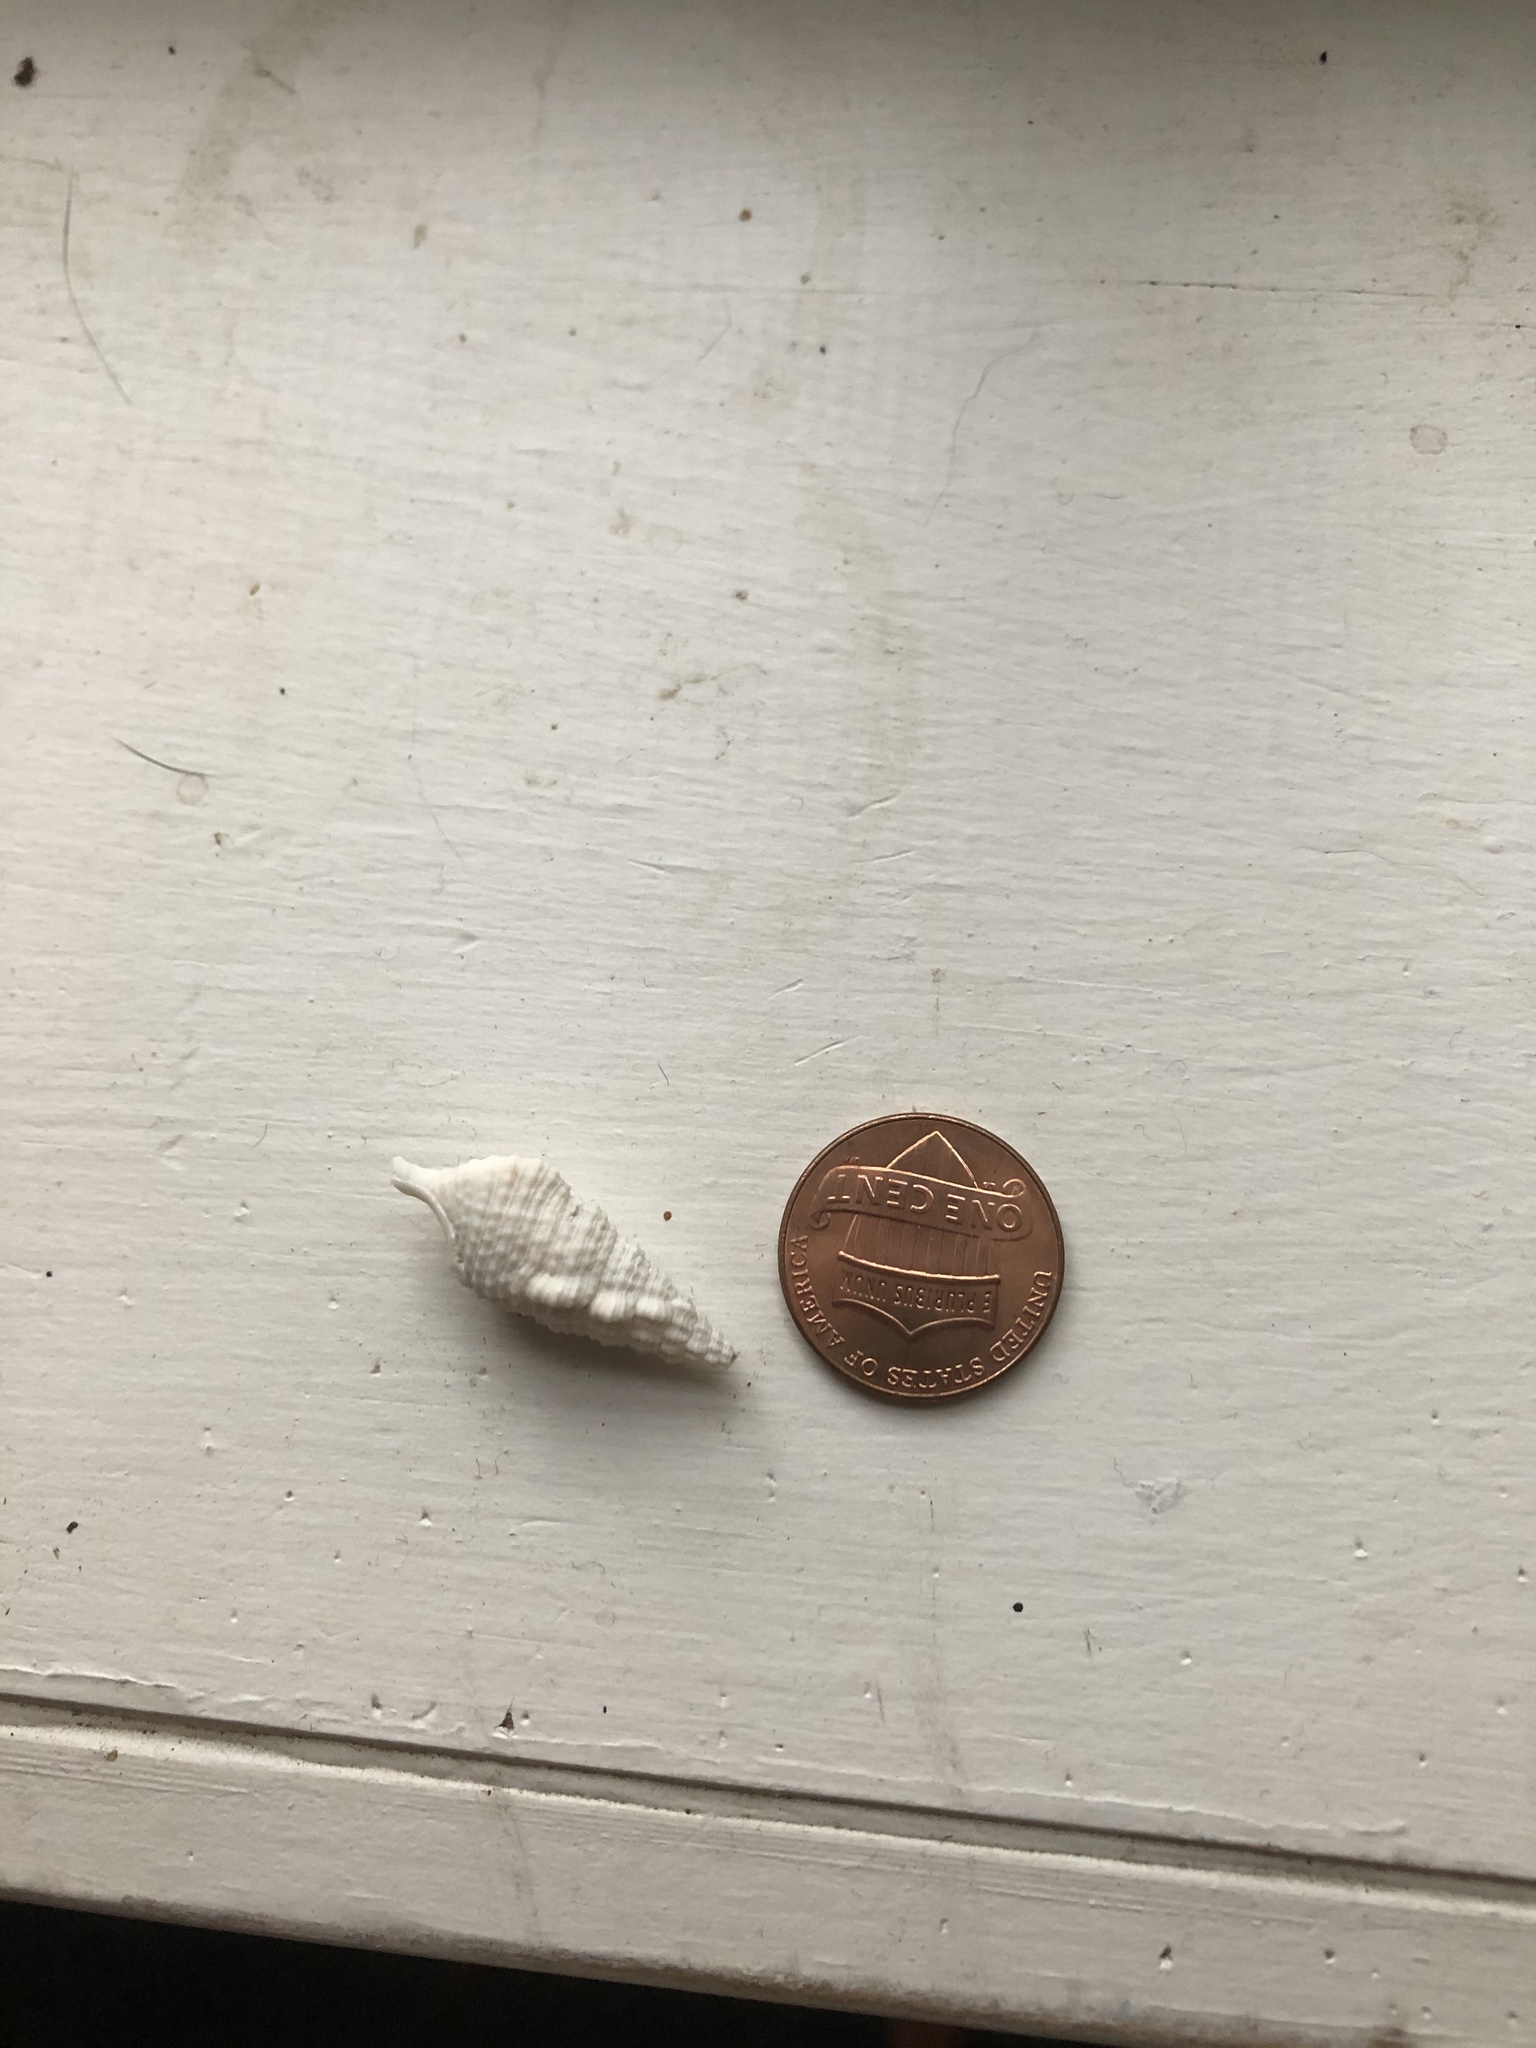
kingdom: Animalia
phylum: Mollusca
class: Gastropoda
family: Cerithiidae
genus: Cerithium
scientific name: Cerithium eburneum
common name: Ivory cerith
